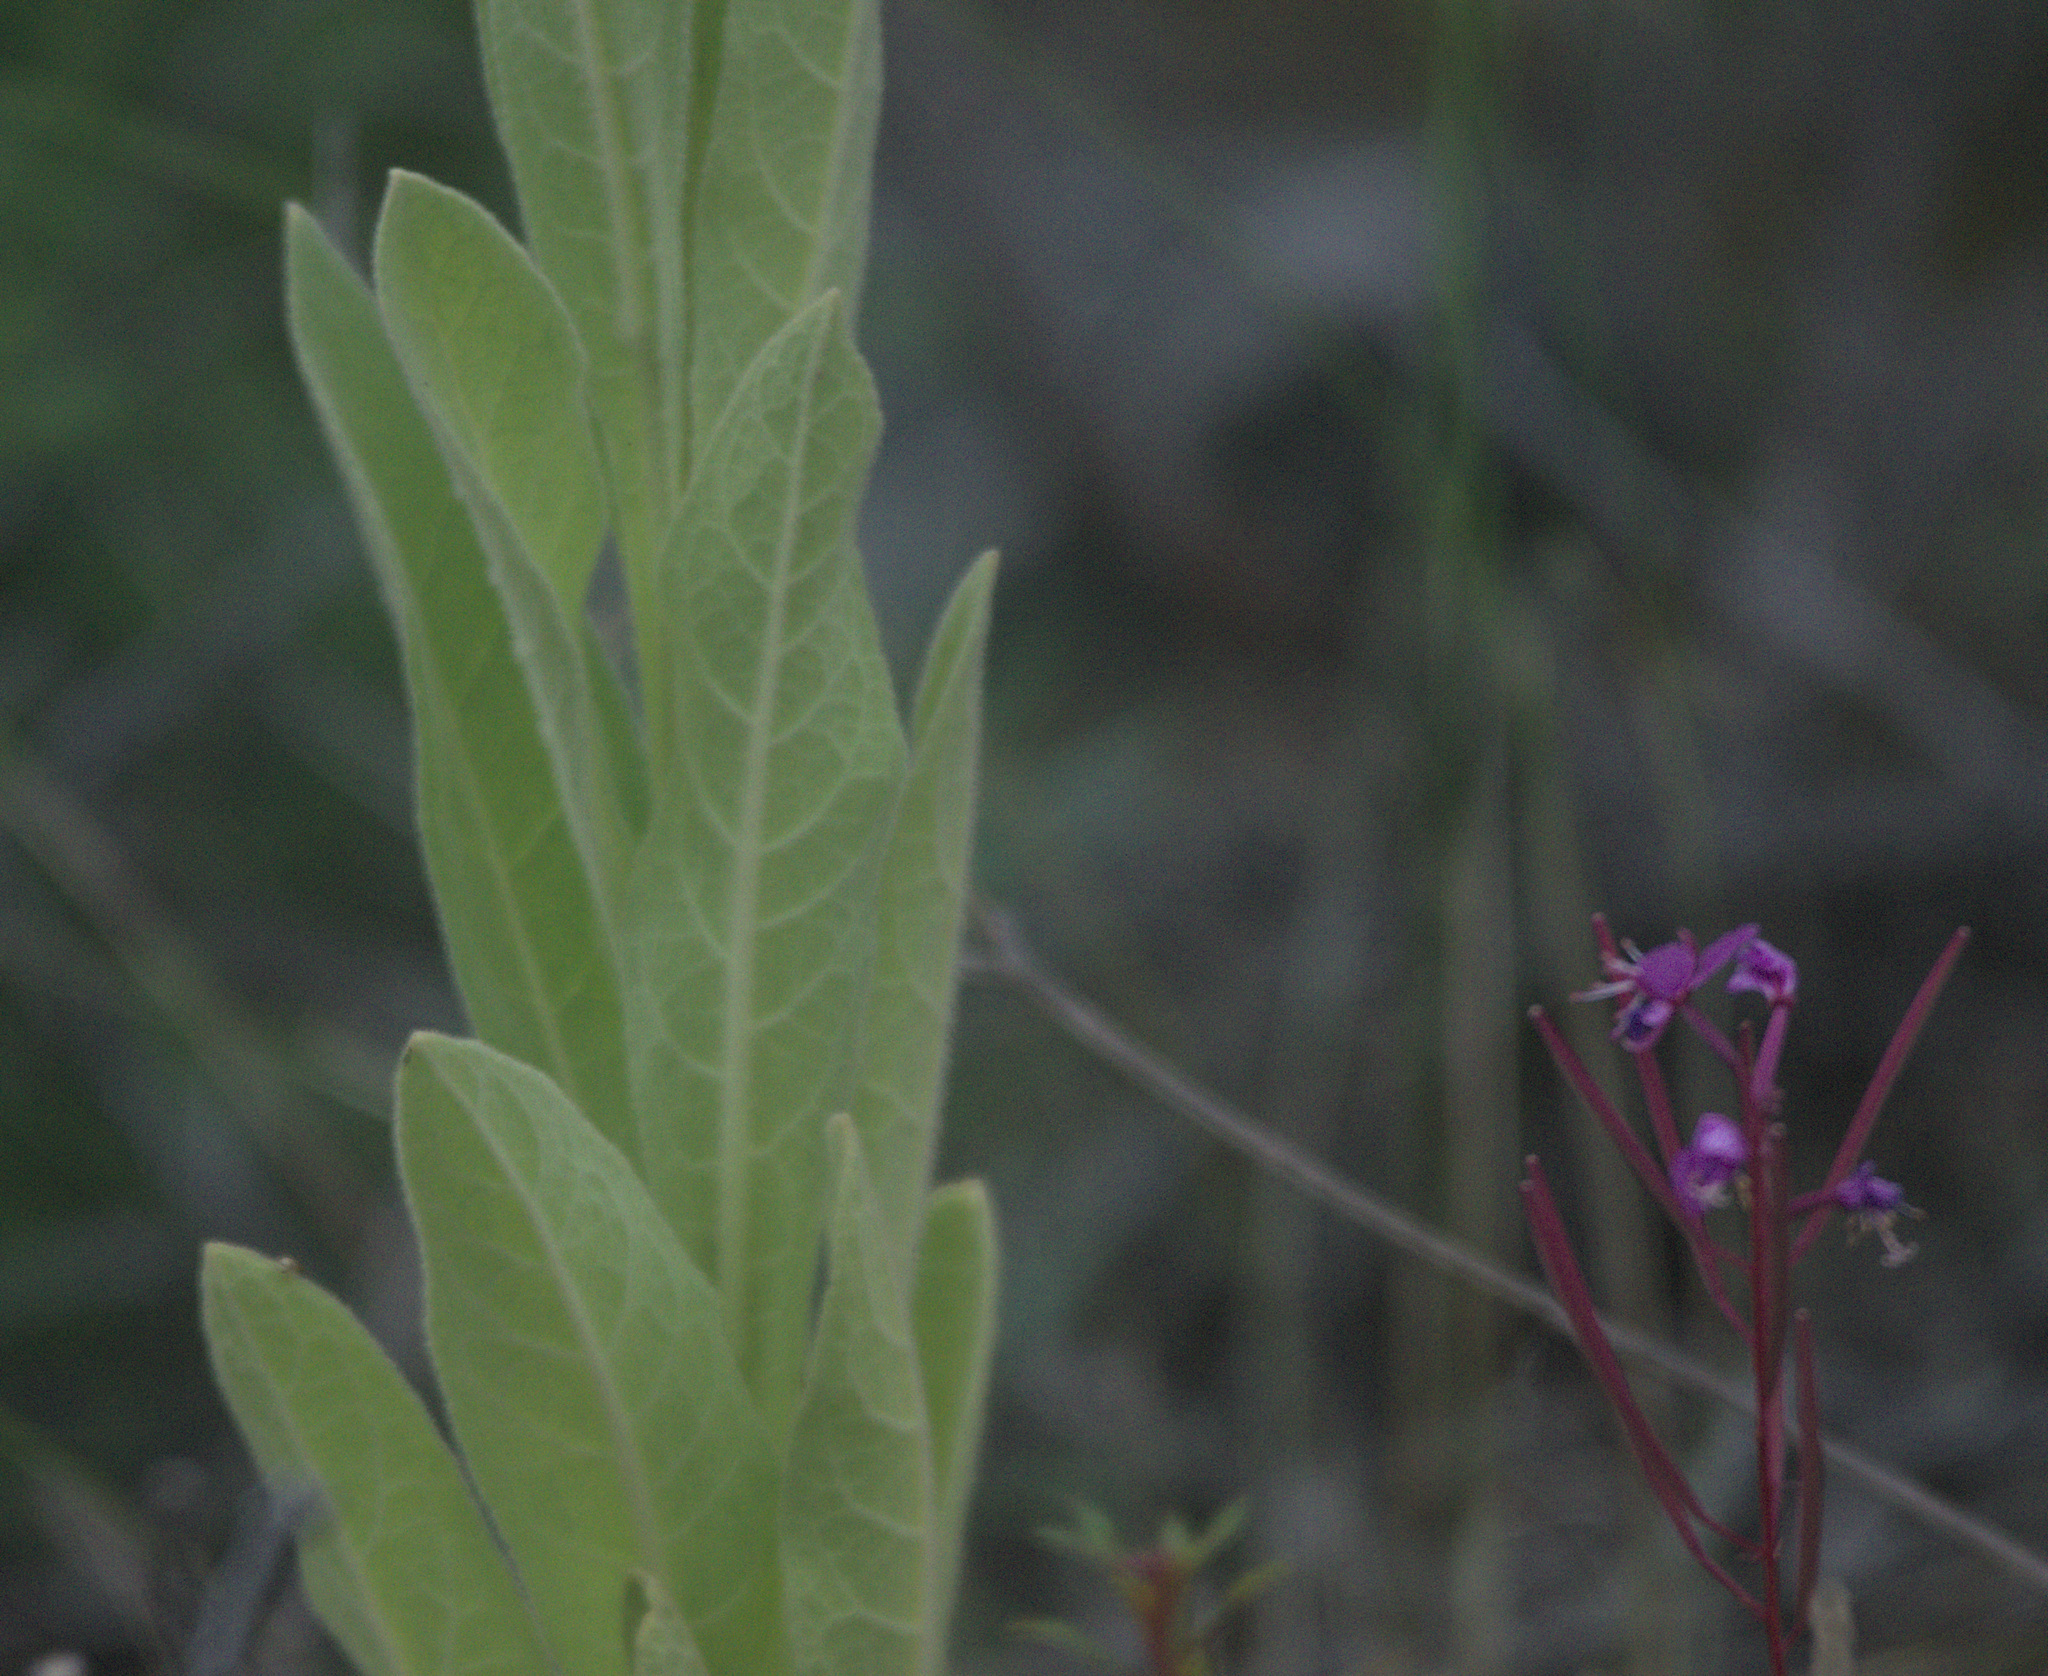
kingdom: Plantae
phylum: Tracheophyta
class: Magnoliopsida
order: Lamiales
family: Scrophulariaceae
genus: Verbascum
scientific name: Verbascum thapsus
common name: Common mullein
